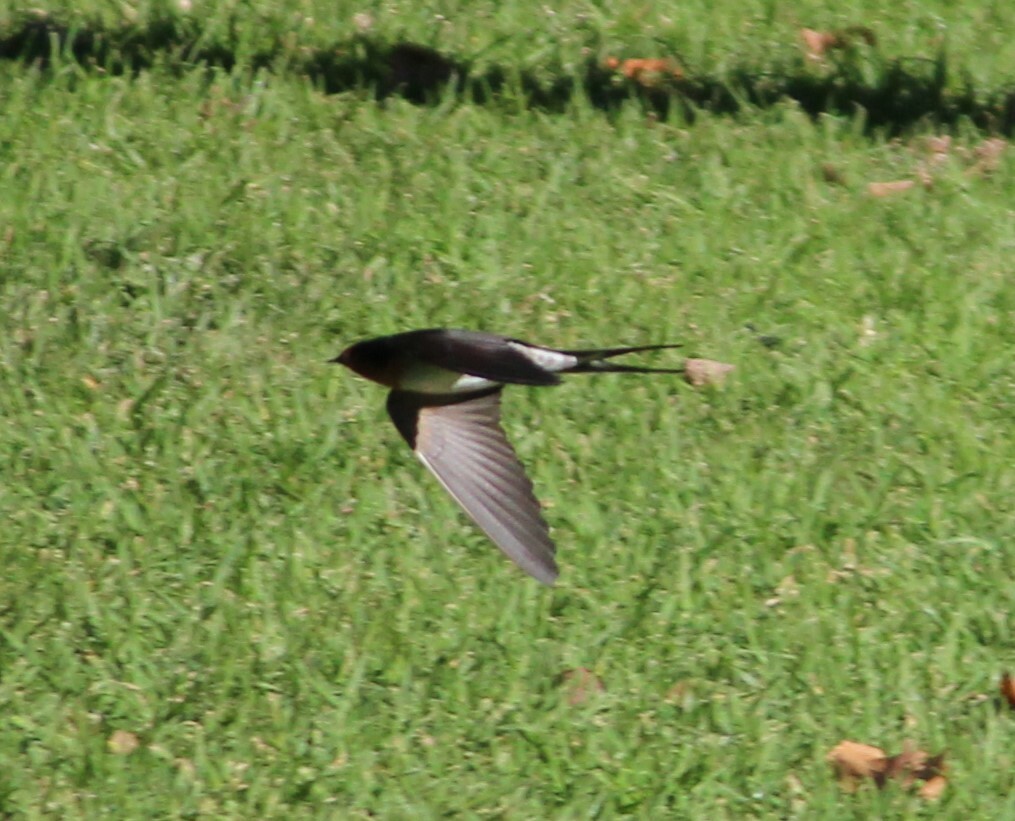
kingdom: Animalia
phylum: Chordata
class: Aves
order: Passeriformes
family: Hirundinidae
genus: Hirundo
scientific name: Hirundo neoxena
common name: Welcome swallow
